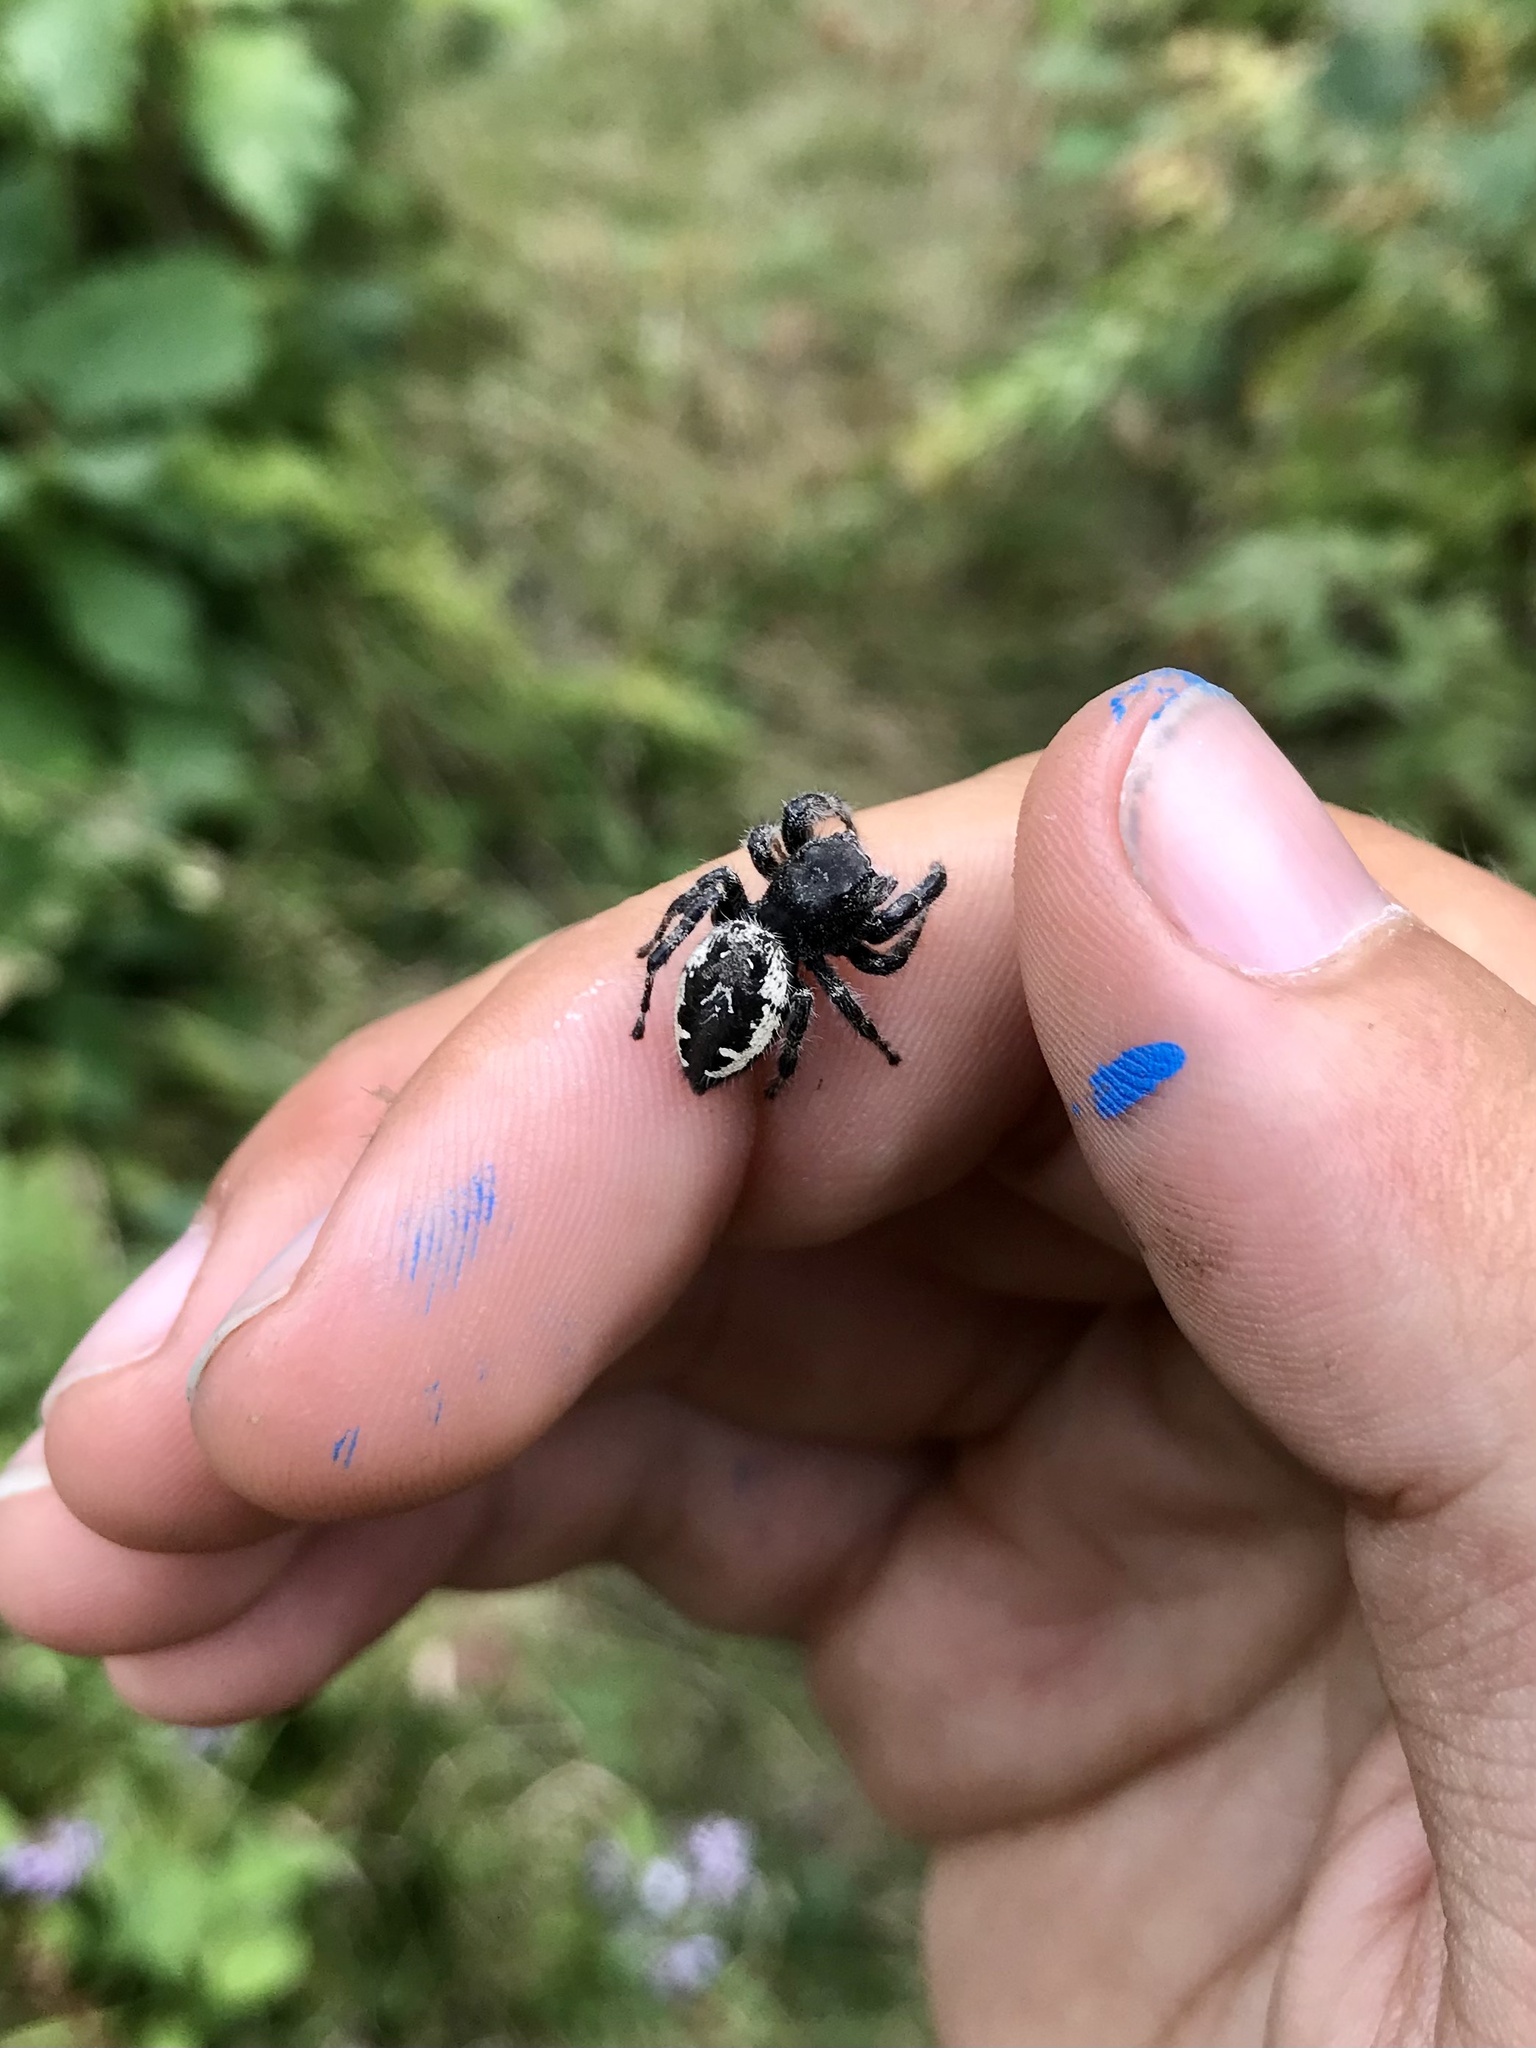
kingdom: Animalia
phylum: Arthropoda
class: Arachnida
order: Araneae
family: Salticidae
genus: Phidippus
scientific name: Phidippus borealis
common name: Boreal tufted jumping spider
